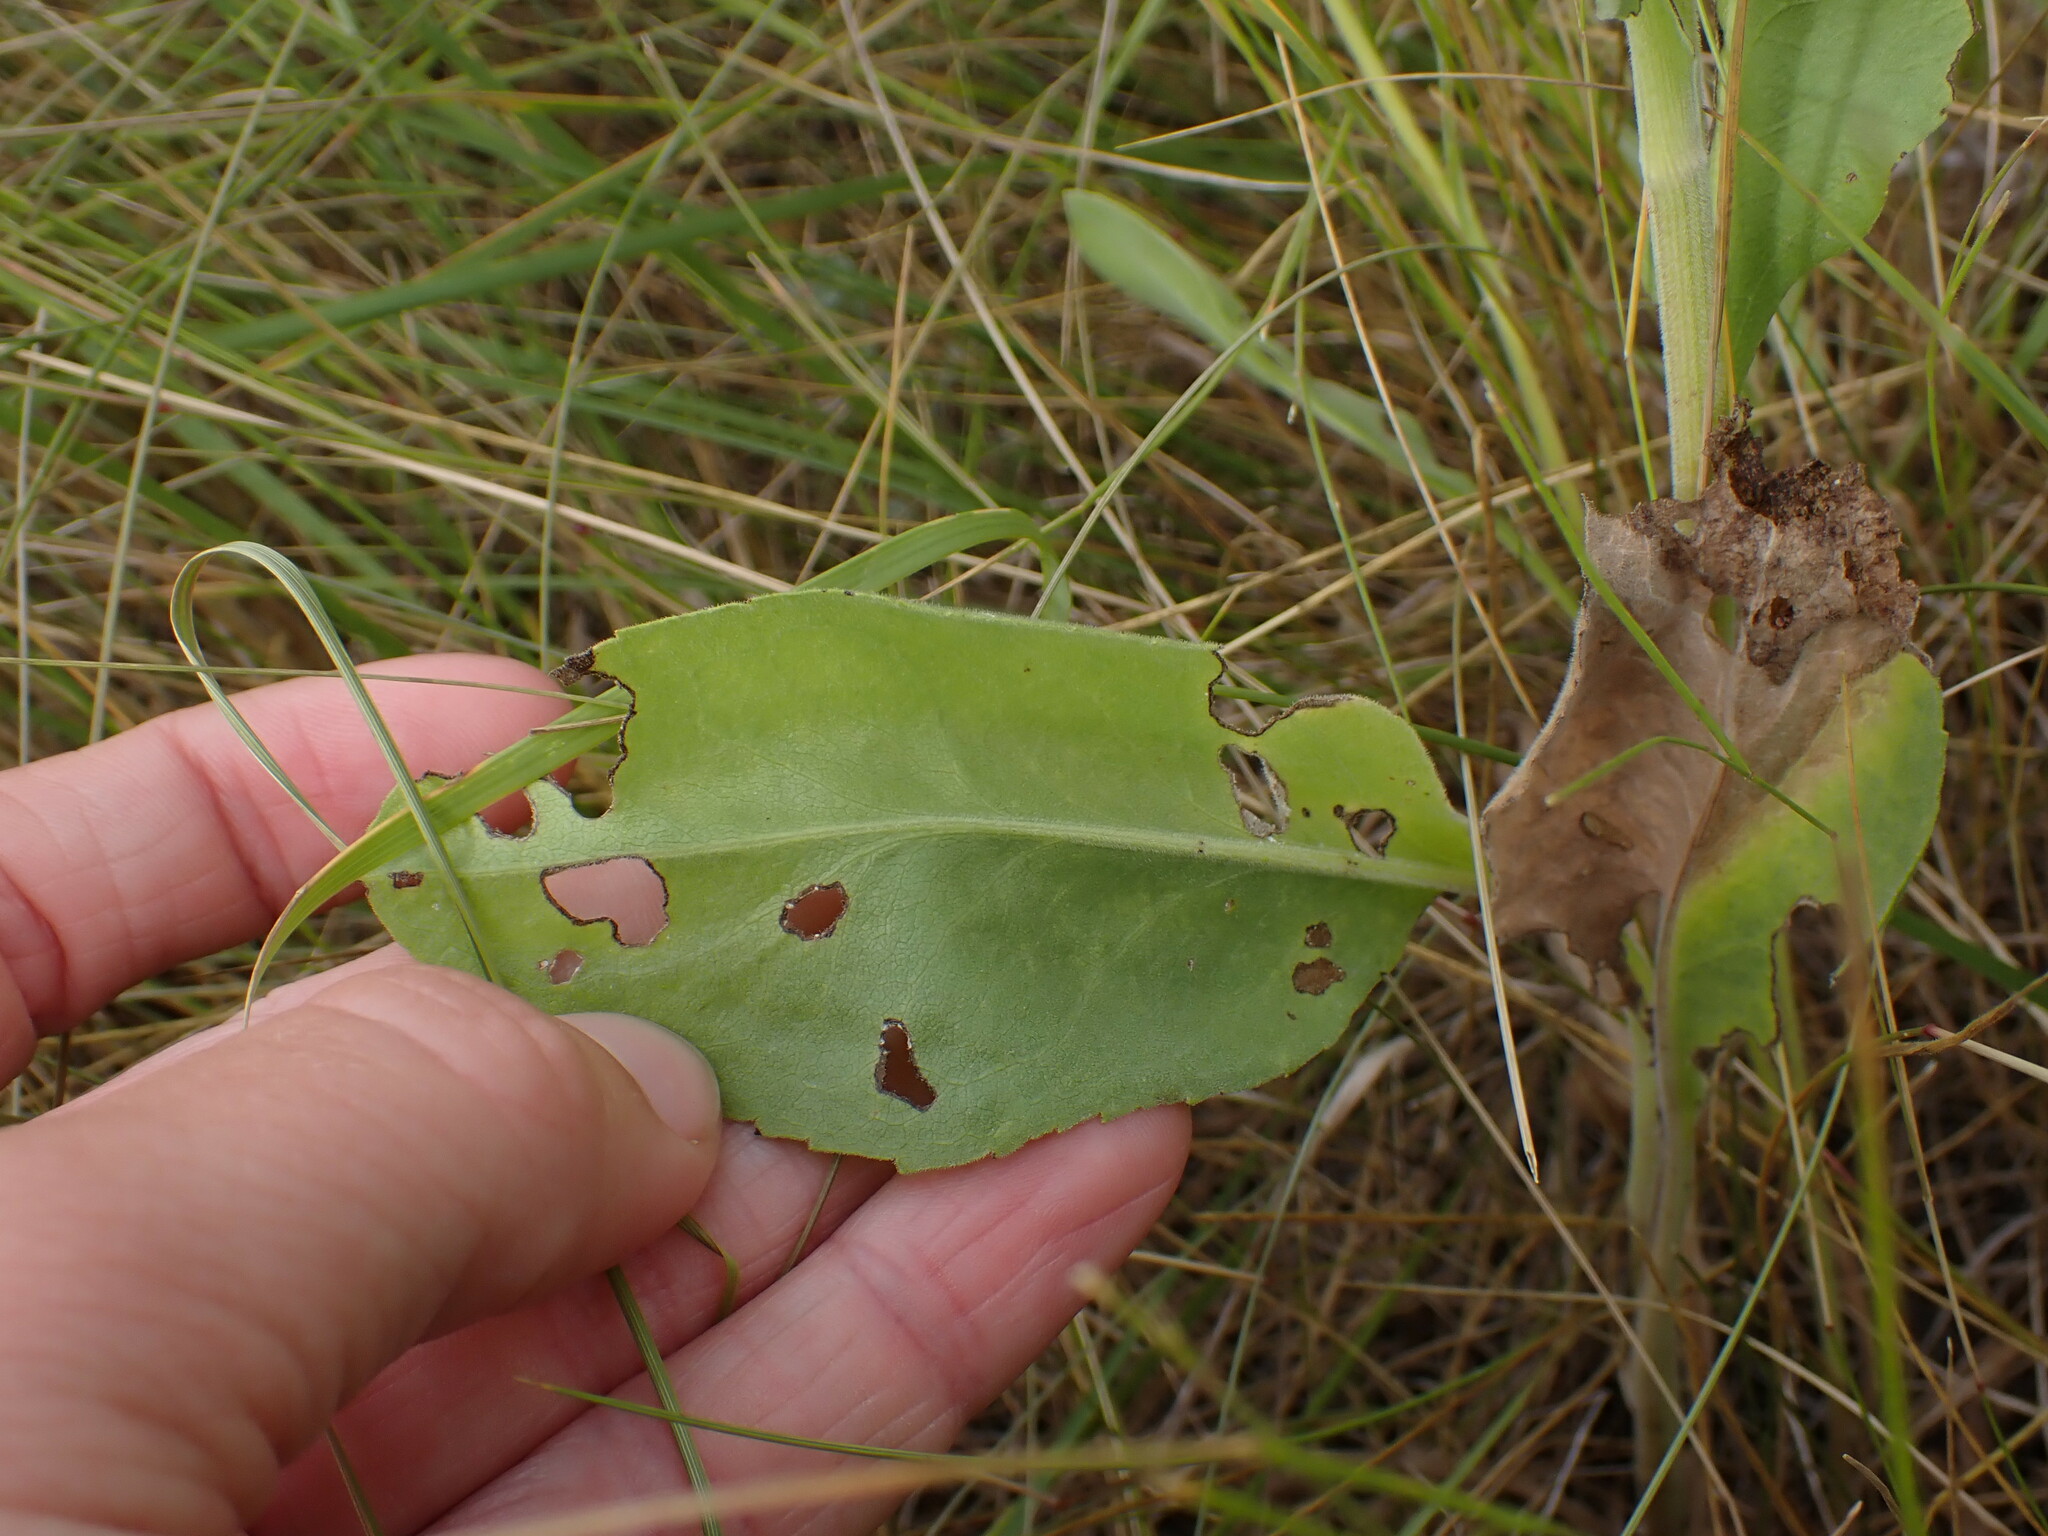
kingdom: Plantae
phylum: Tracheophyta
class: Magnoliopsida
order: Asterales
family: Asteraceae
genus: Solidago
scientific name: Solidago rigida
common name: Rigid goldenrod
